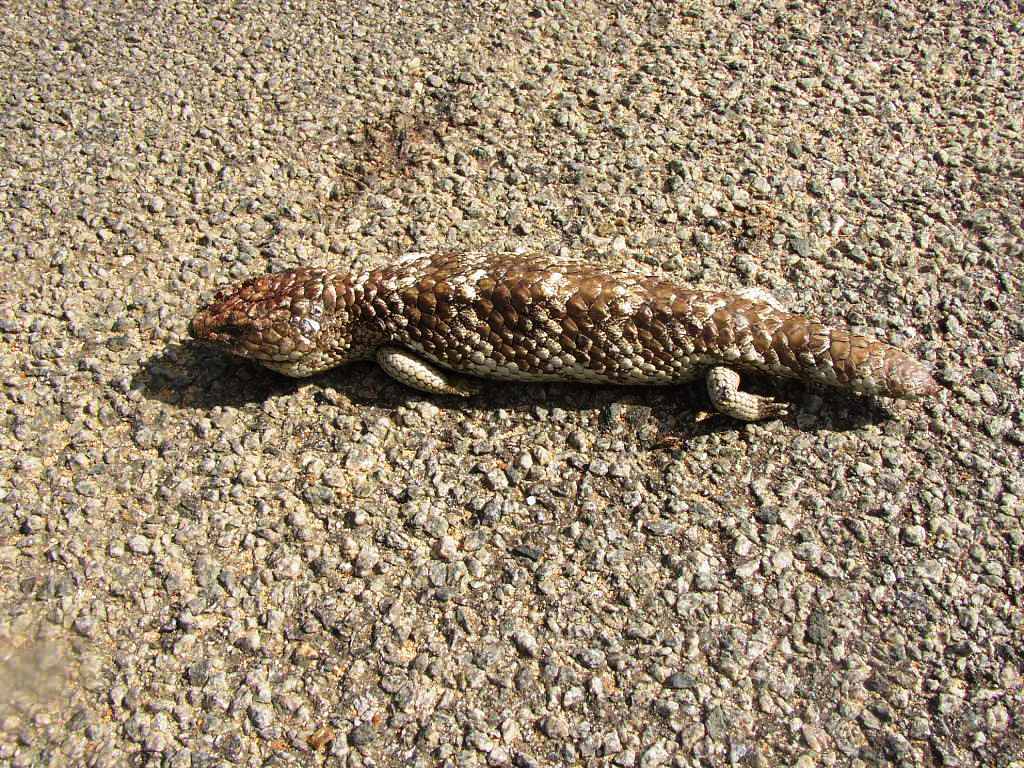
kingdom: Animalia
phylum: Chordata
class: Squamata
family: Scincidae
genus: Tiliqua
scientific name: Tiliqua rugosa
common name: Pinecone lizard
